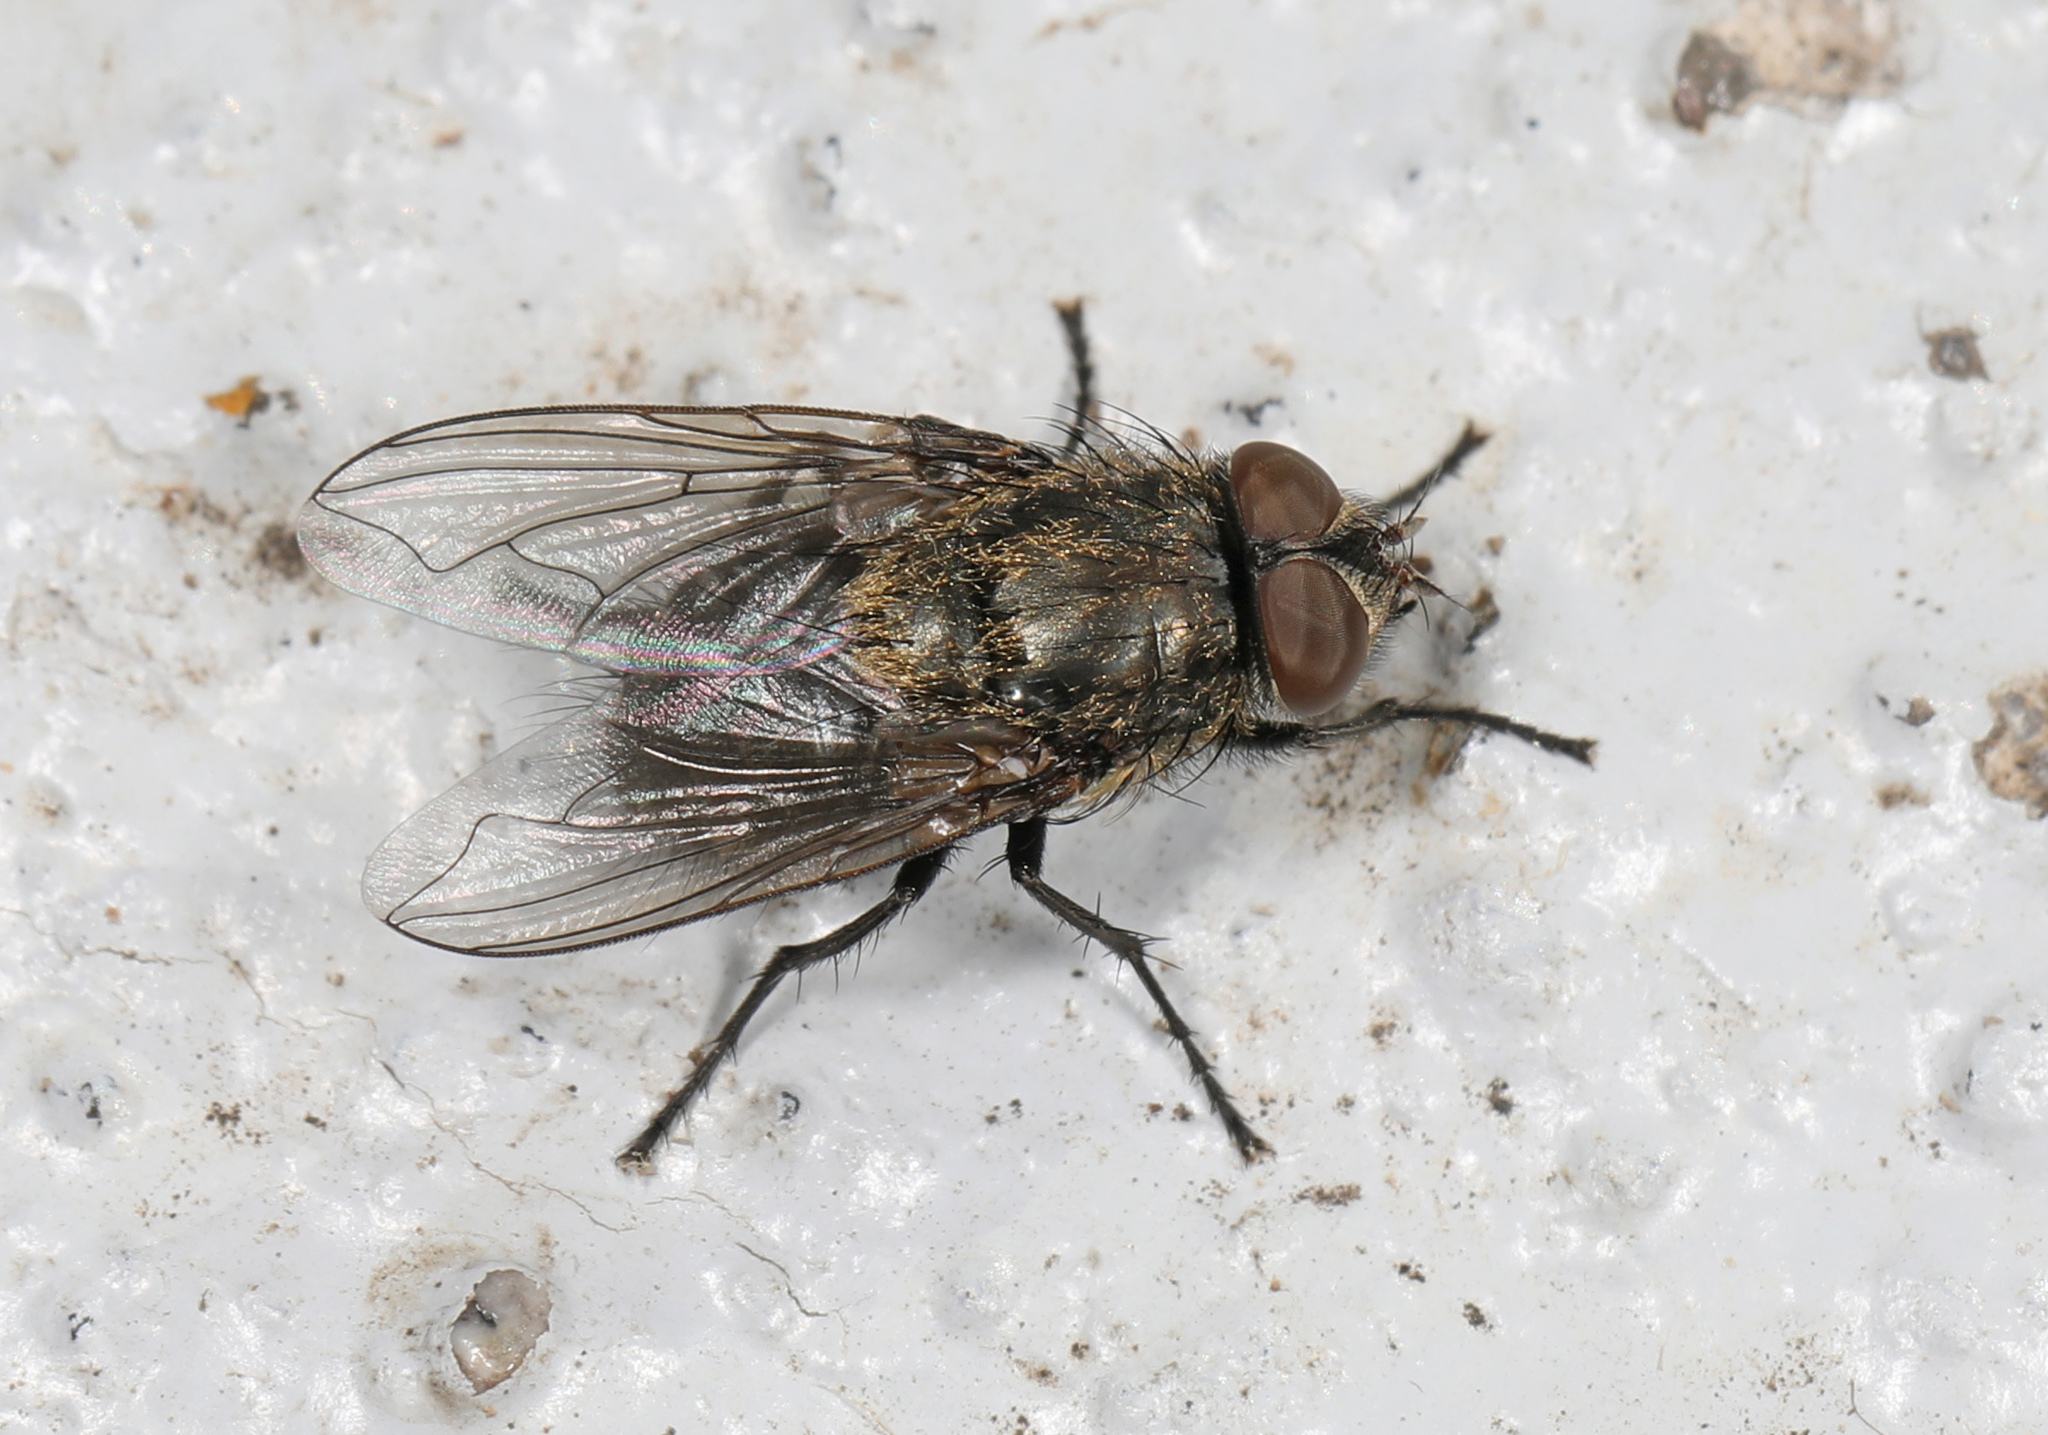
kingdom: Animalia
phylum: Arthropoda
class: Insecta
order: Diptera
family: Polleniidae
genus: Pollenia
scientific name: Pollenia
